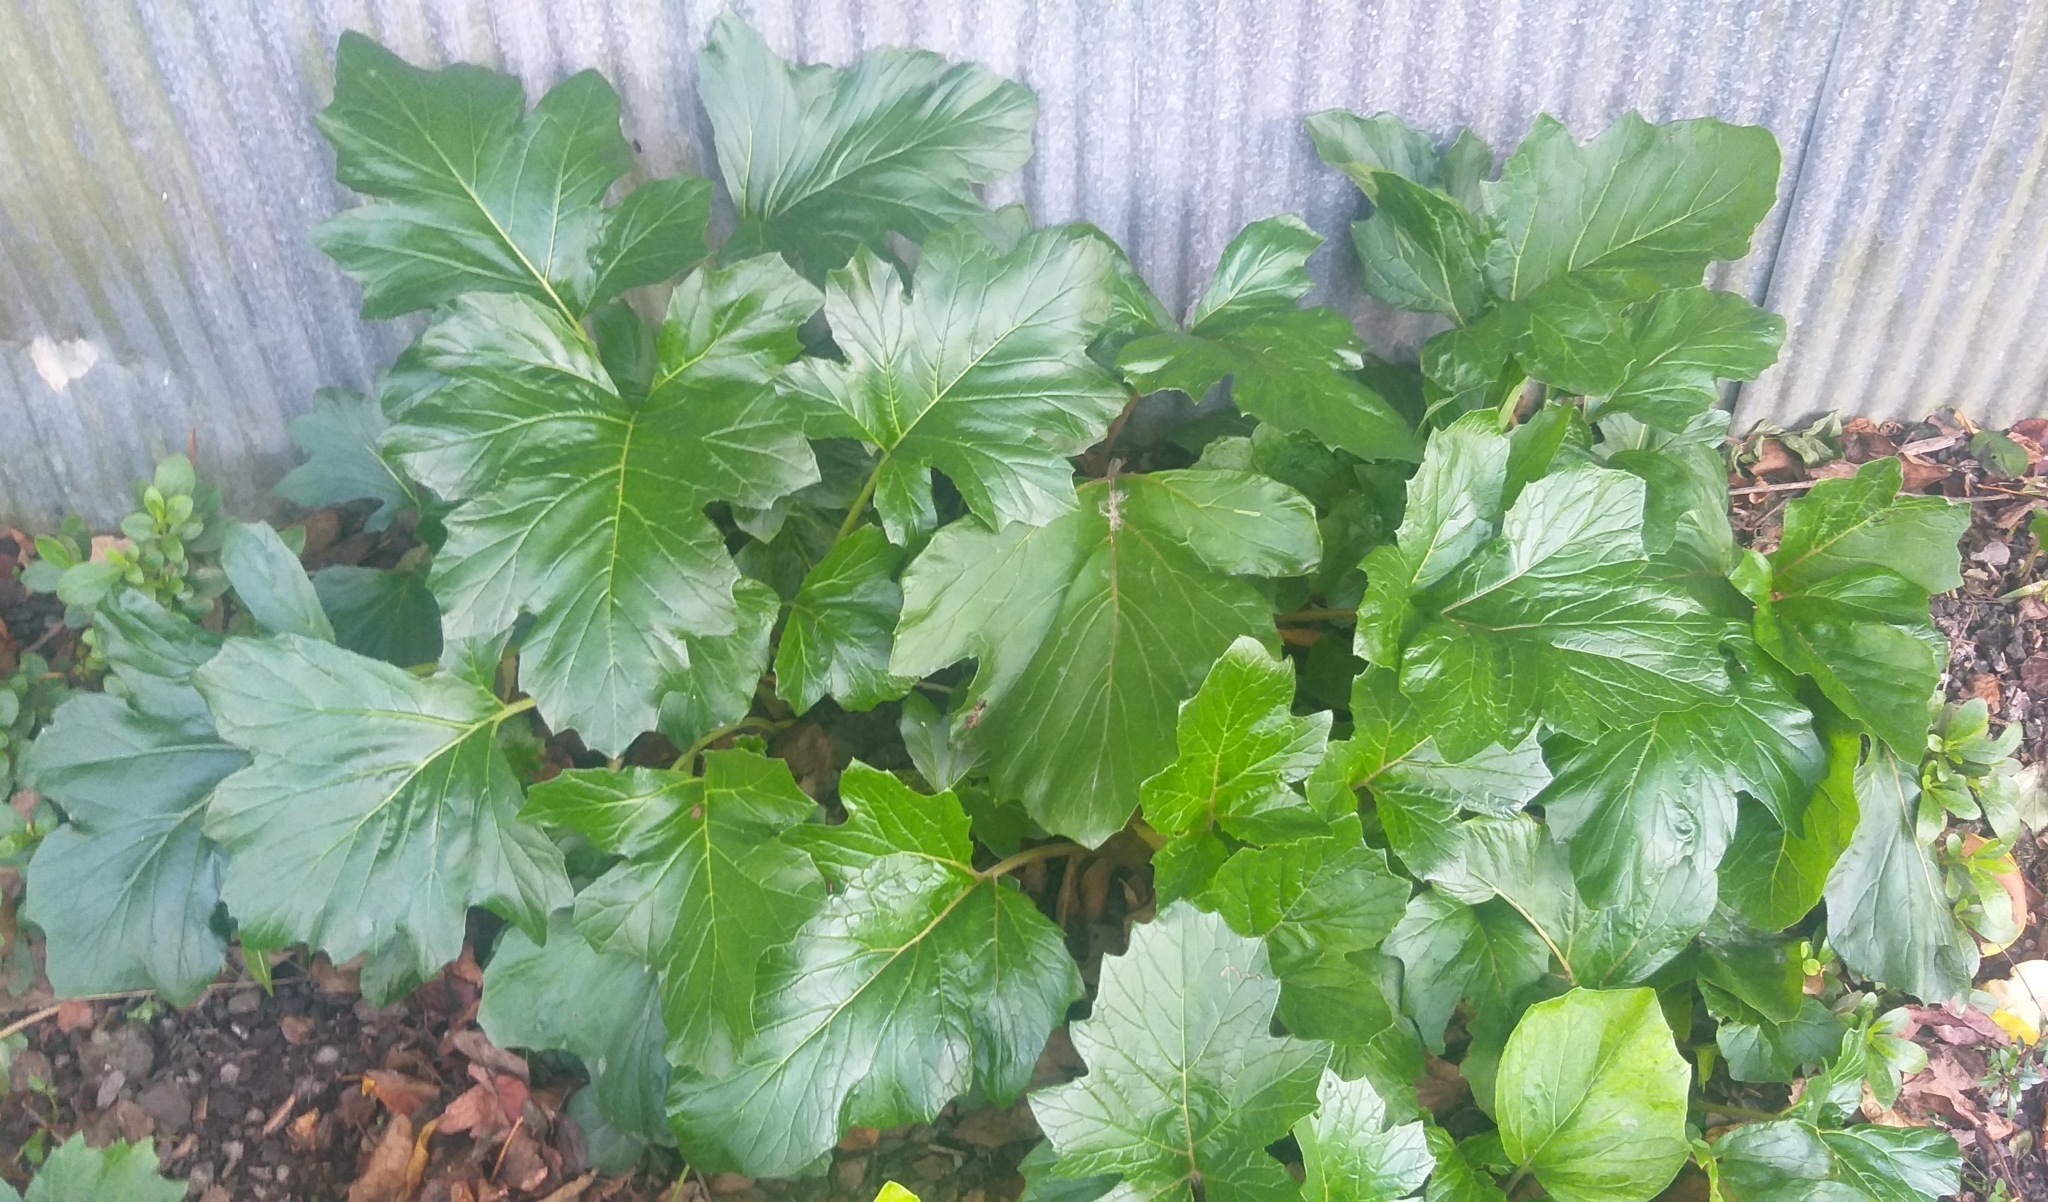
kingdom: Plantae
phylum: Tracheophyta
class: Magnoliopsida
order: Lamiales
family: Acanthaceae
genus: Acanthus
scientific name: Acanthus mollis
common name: Bear's-breech
